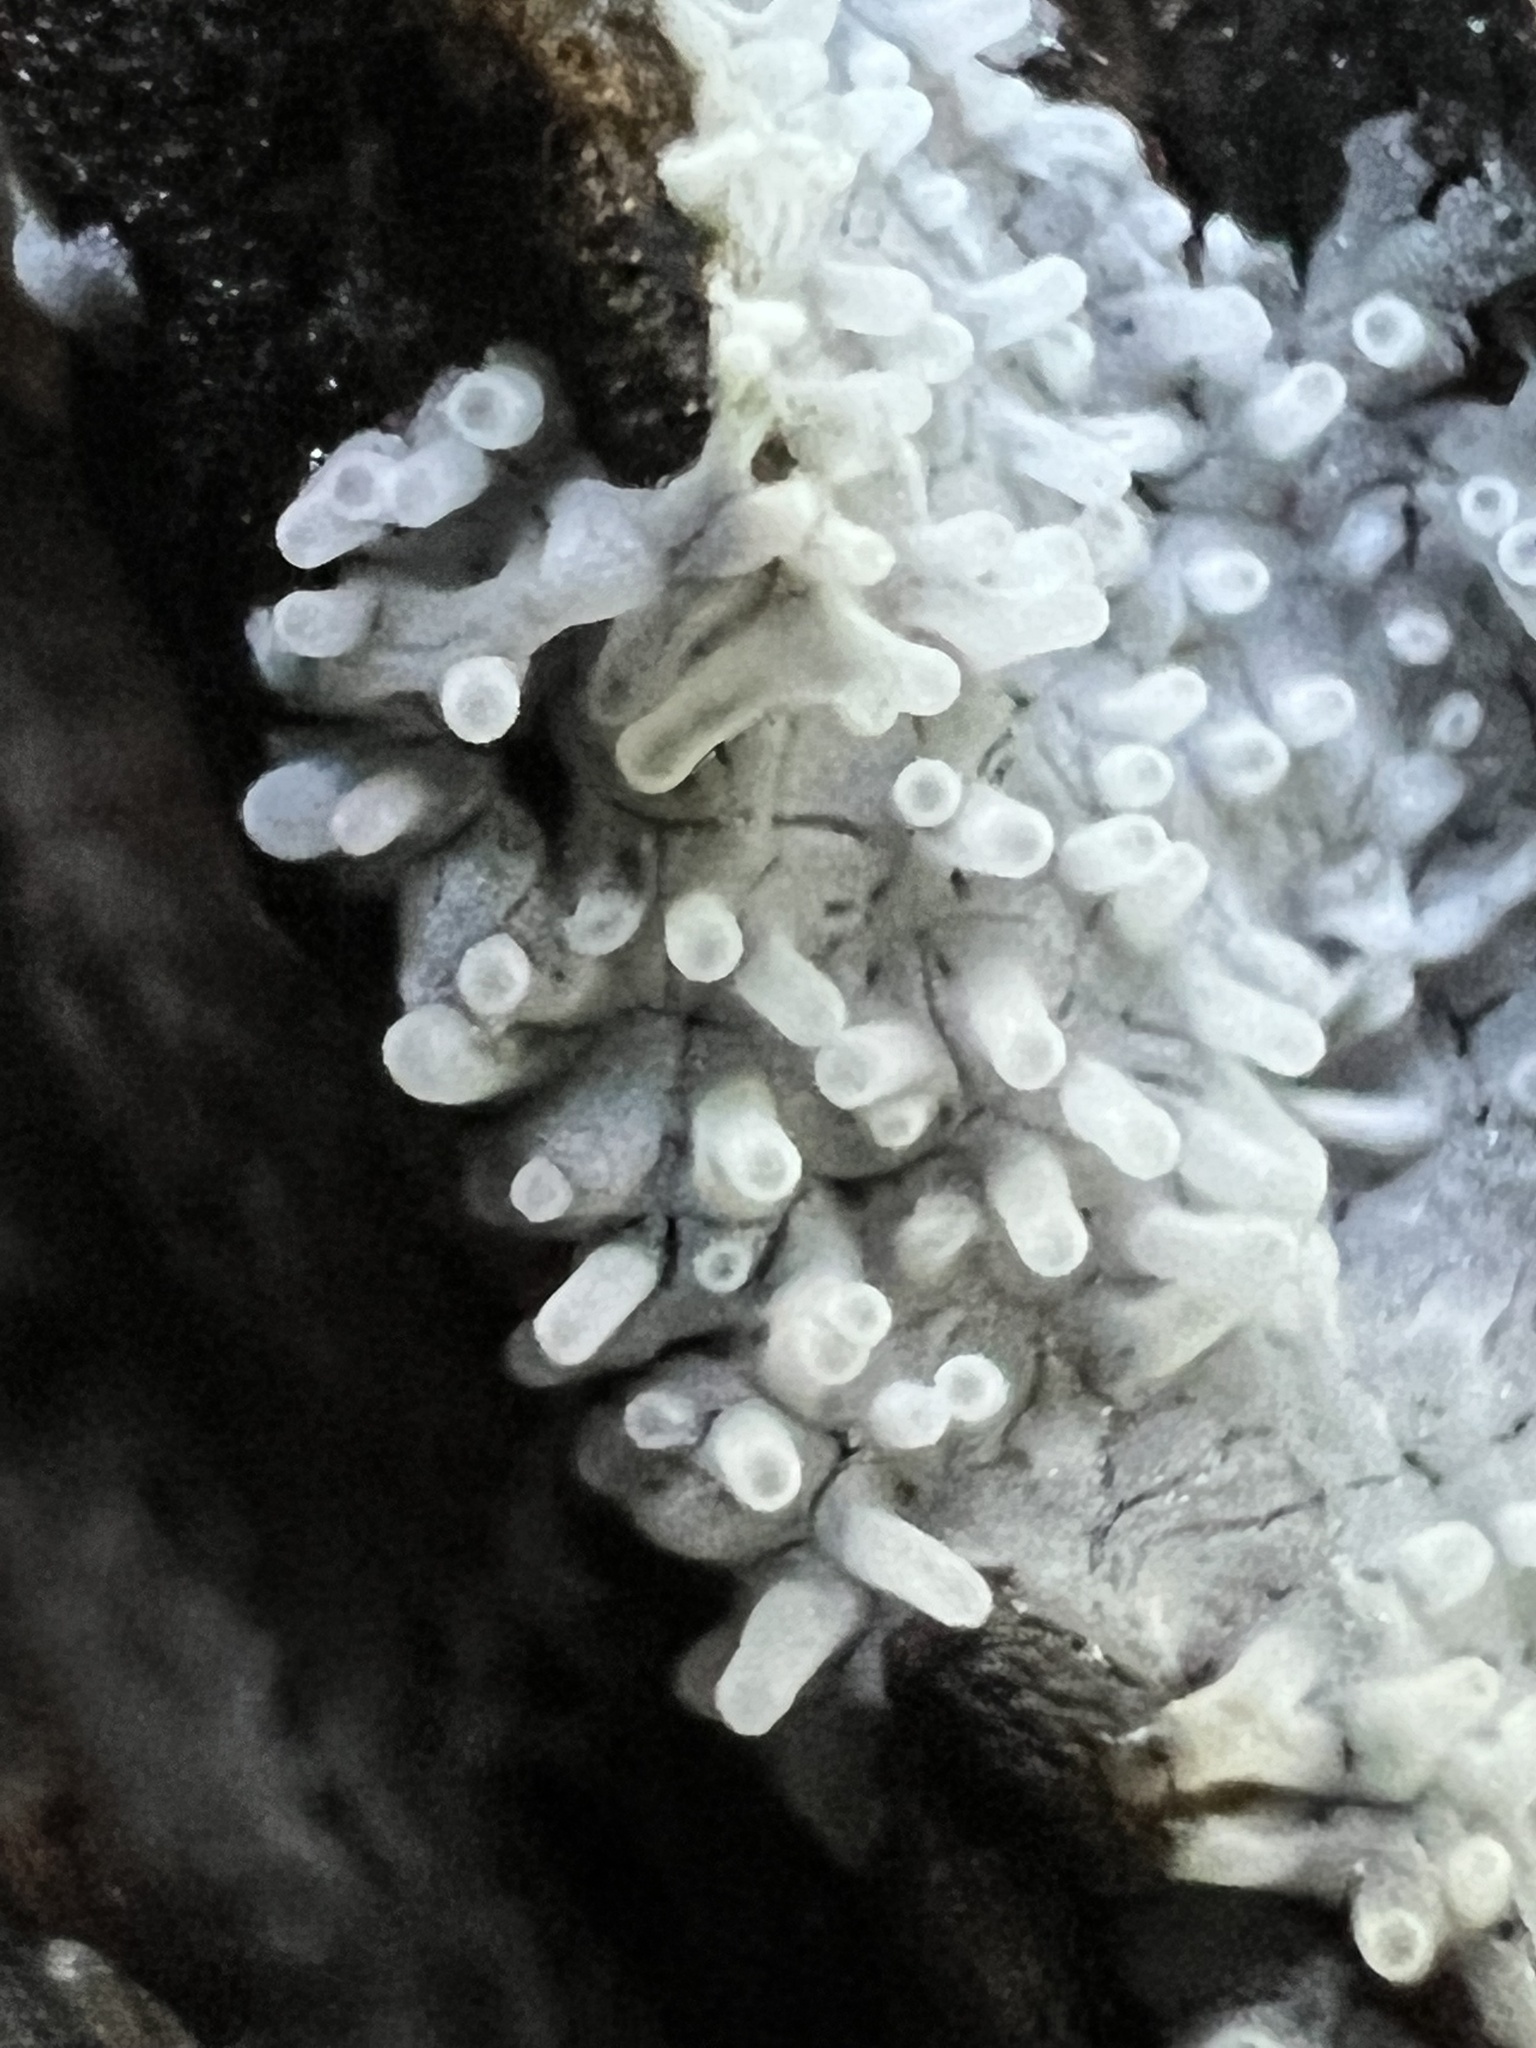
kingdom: Protozoa
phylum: Mycetozoa
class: Protosteliomycetes
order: Ceratiomyxales
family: Ceratiomyxaceae
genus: Ceratiomyxa
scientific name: Ceratiomyxa fruticulosa
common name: Honeycomb coral slime mold
